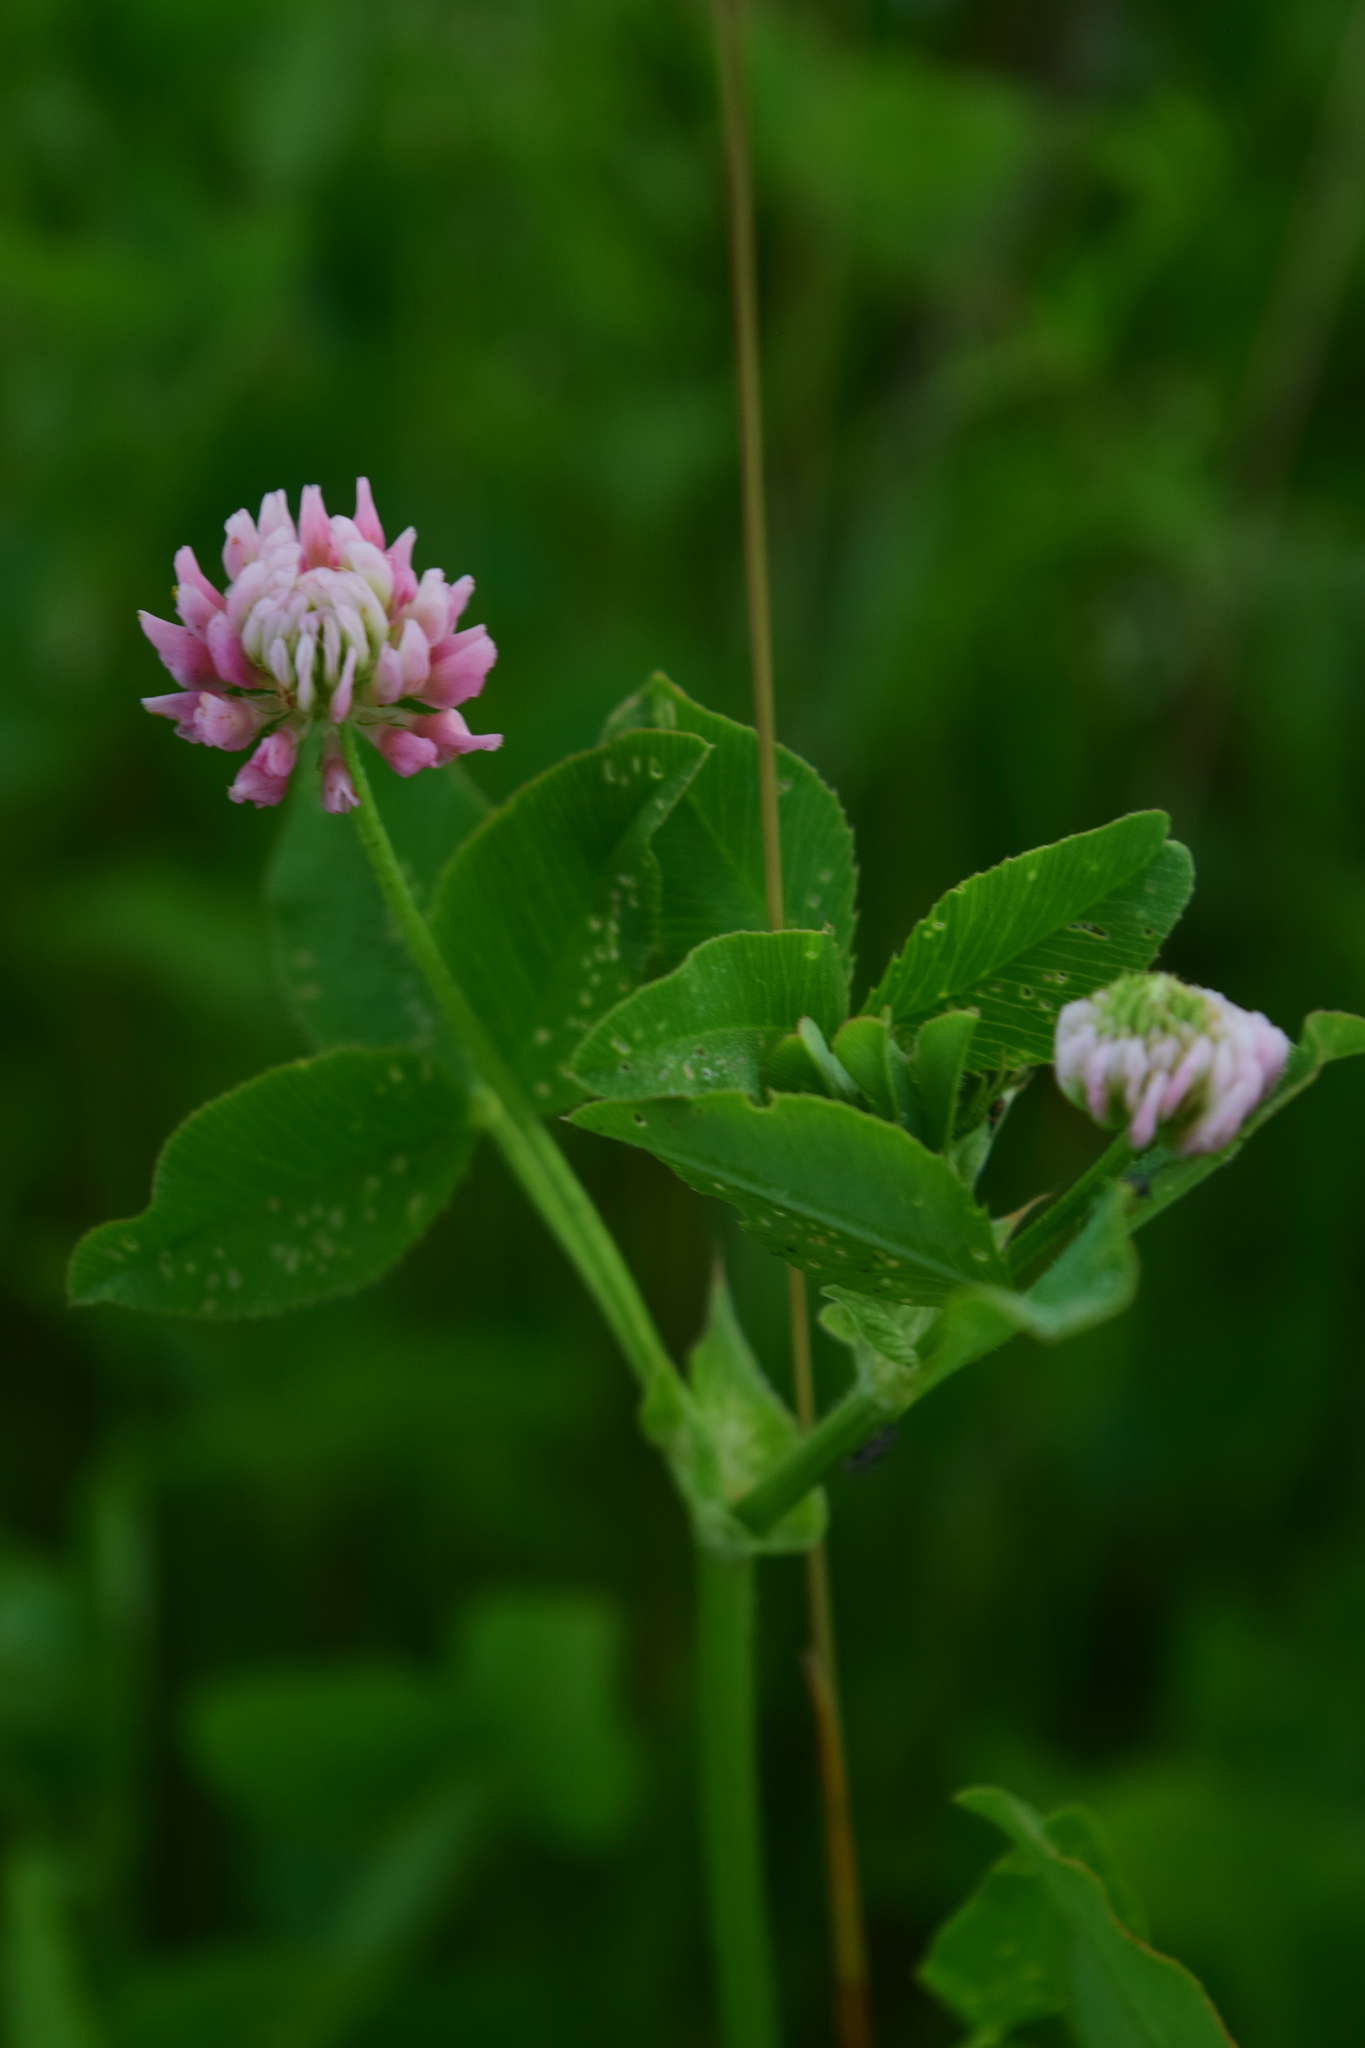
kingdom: Plantae
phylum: Tracheophyta
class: Magnoliopsida
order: Fabales
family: Fabaceae
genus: Trifolium
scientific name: Trifolium hybridum
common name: Alsike clover
